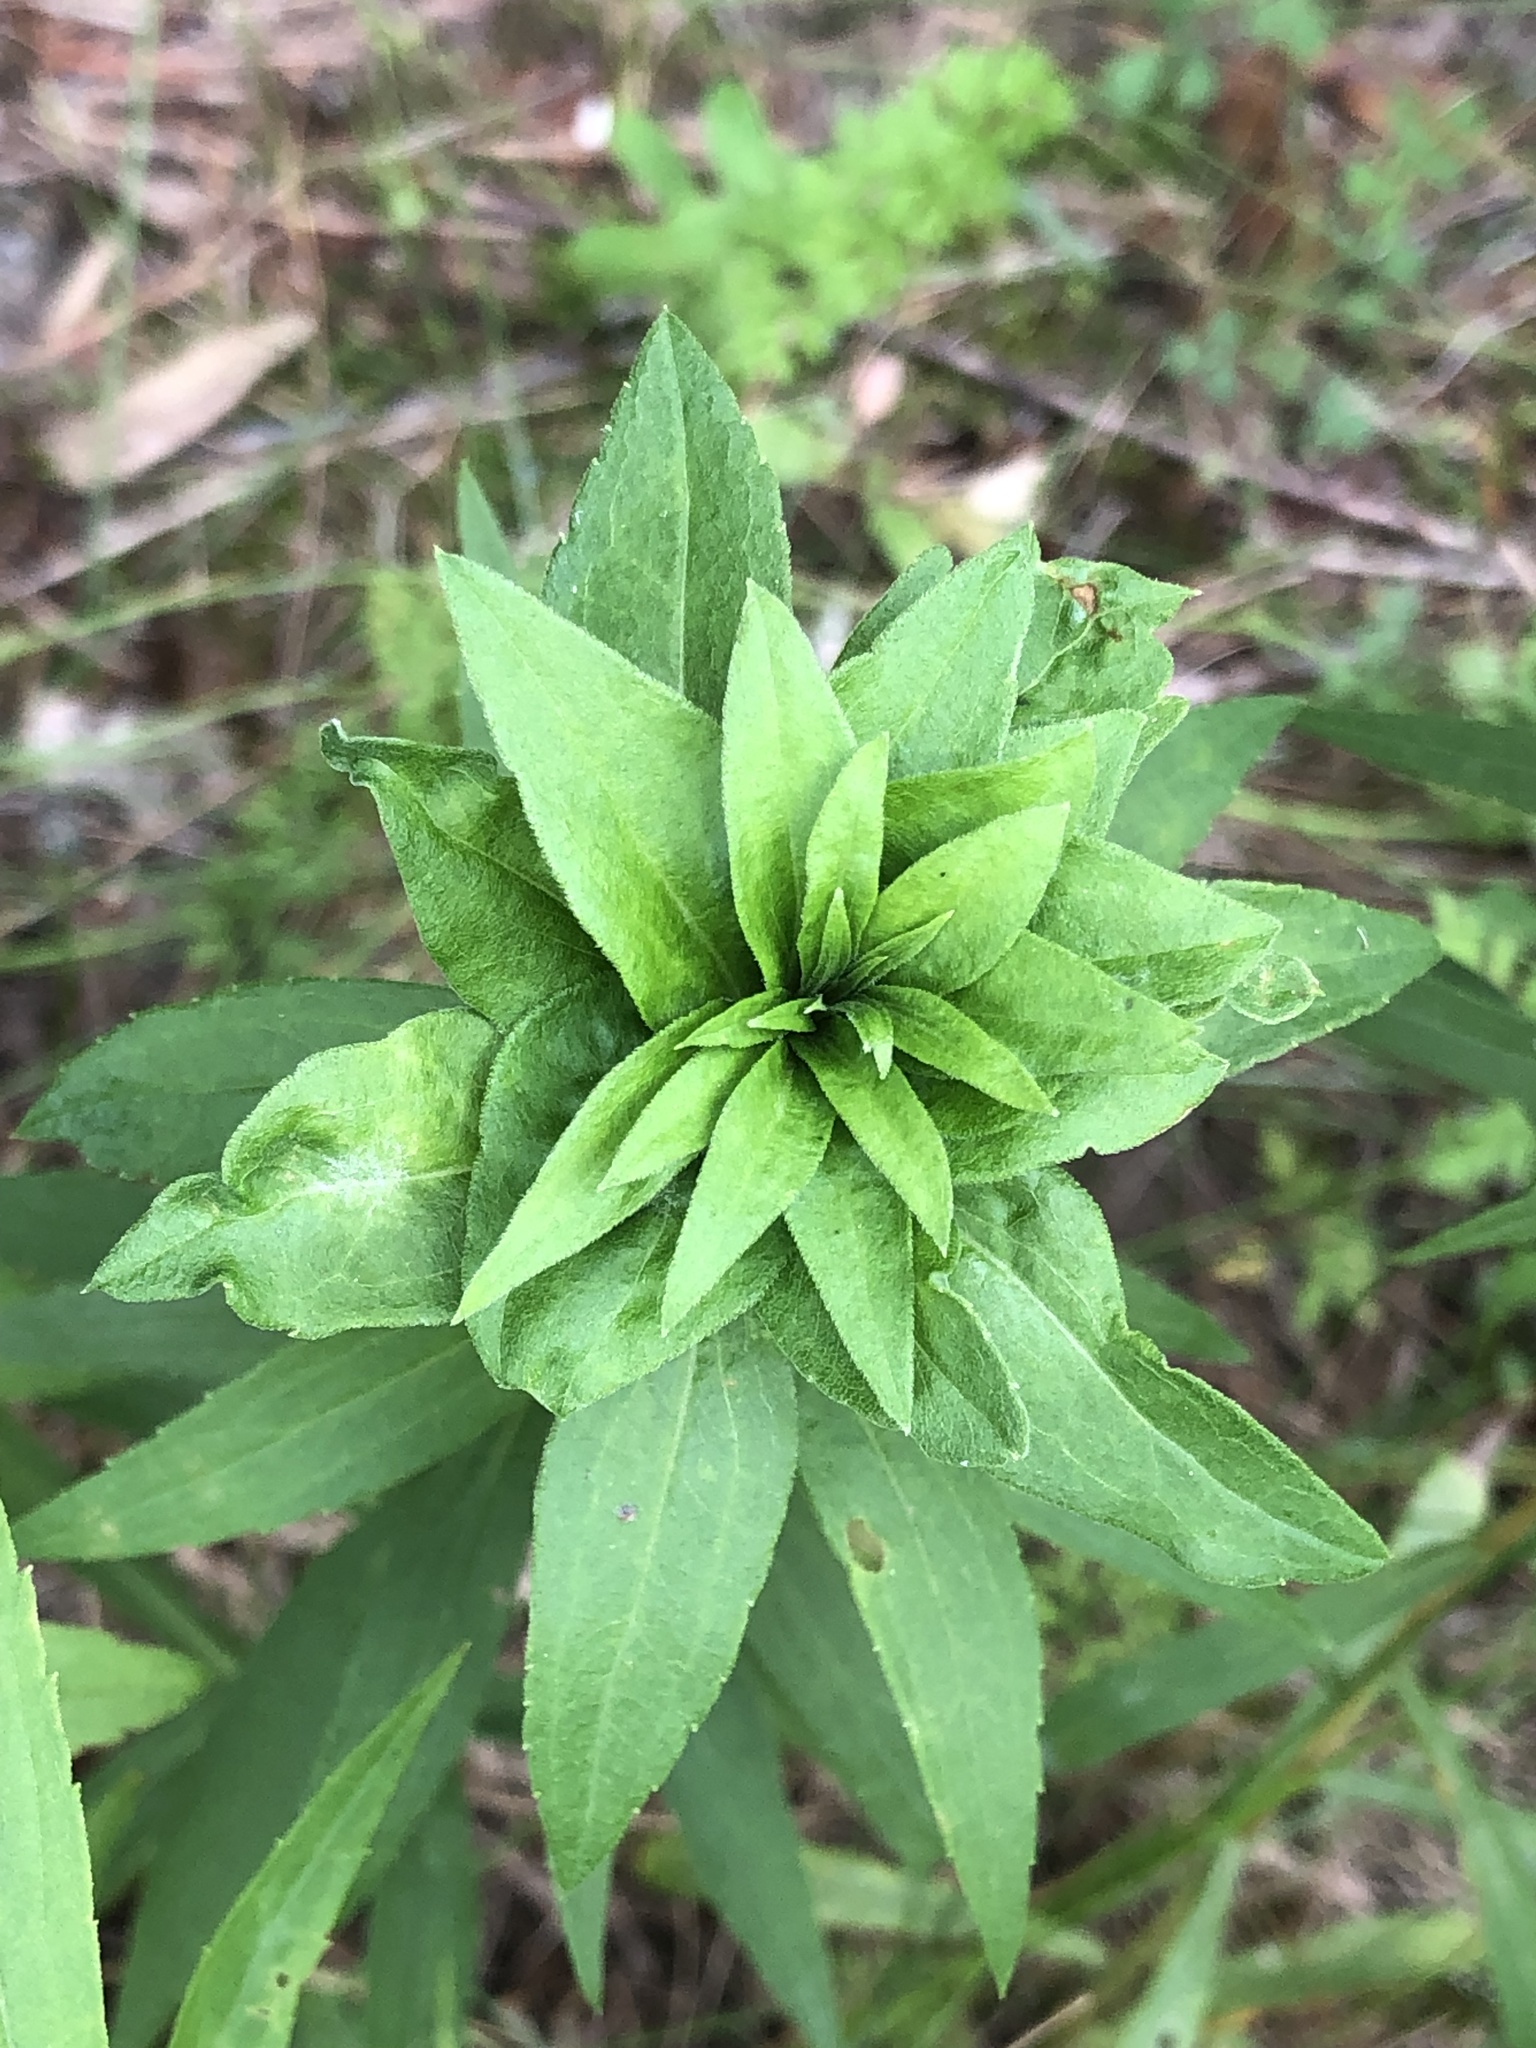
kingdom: Animalia
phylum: Arthropoda
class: Insecta
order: Diptera
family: Cecidomyiidae
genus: Rhopalomyia
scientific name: Rhopalomyia solidaginis
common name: Goldenrod bunch gall midge
